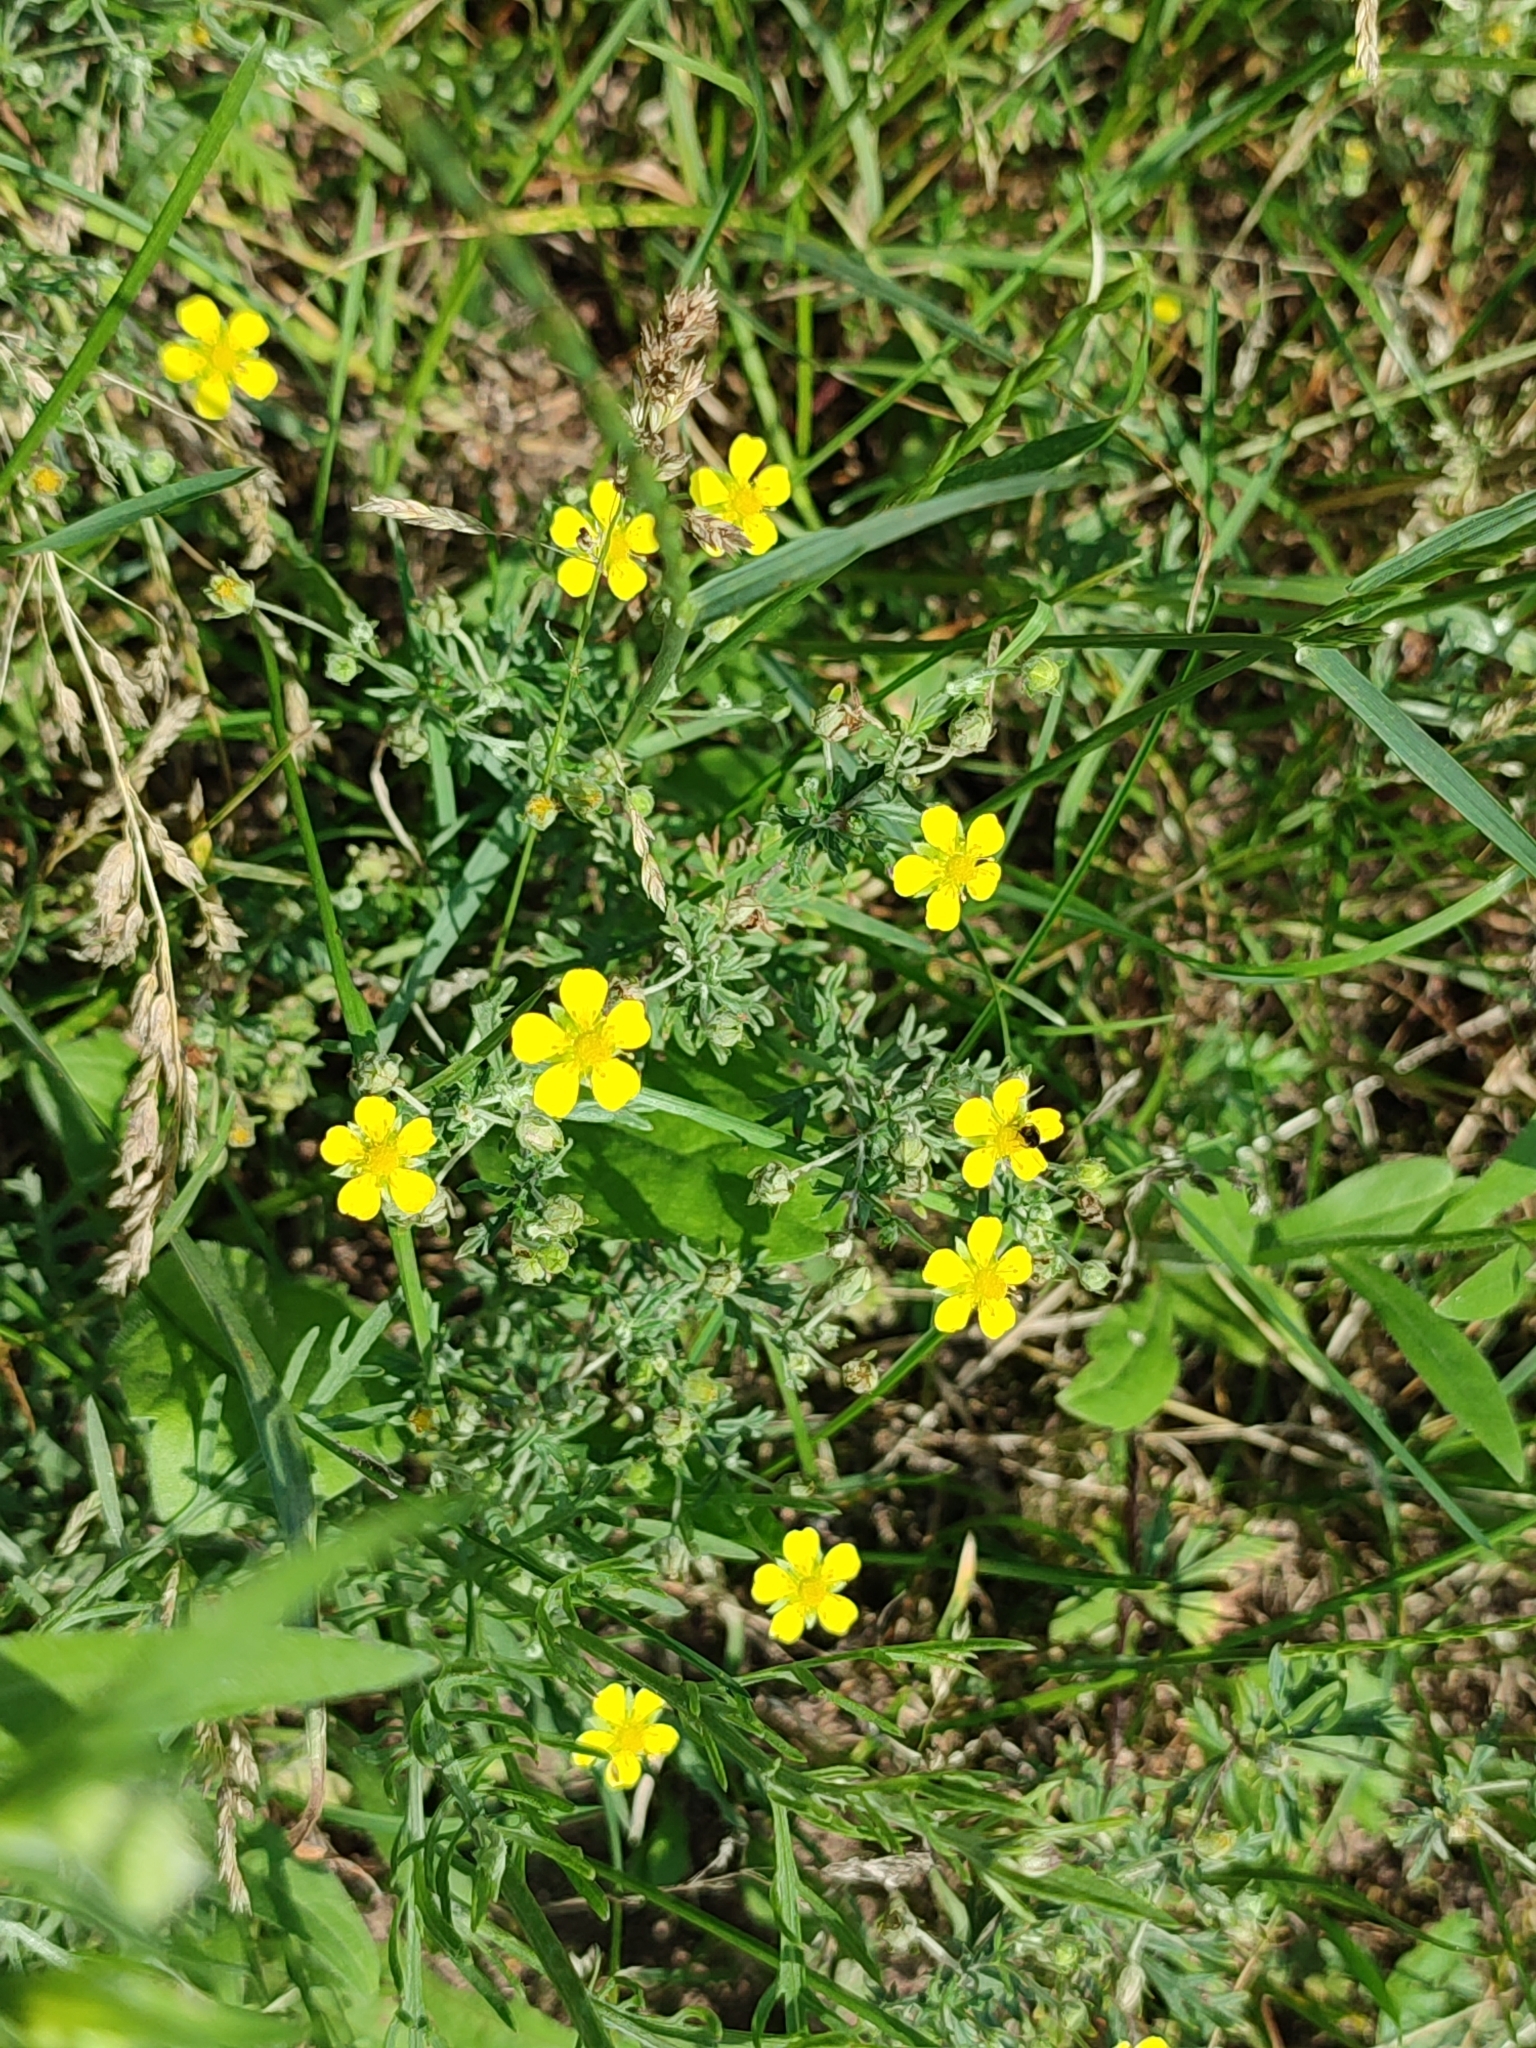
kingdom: Plantae
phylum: Tracheophyta
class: Magnoliopsida
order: Rosales
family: Rosaceae
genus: Potentilla
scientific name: Potentilla argentea
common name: Hoary cinquefoil
